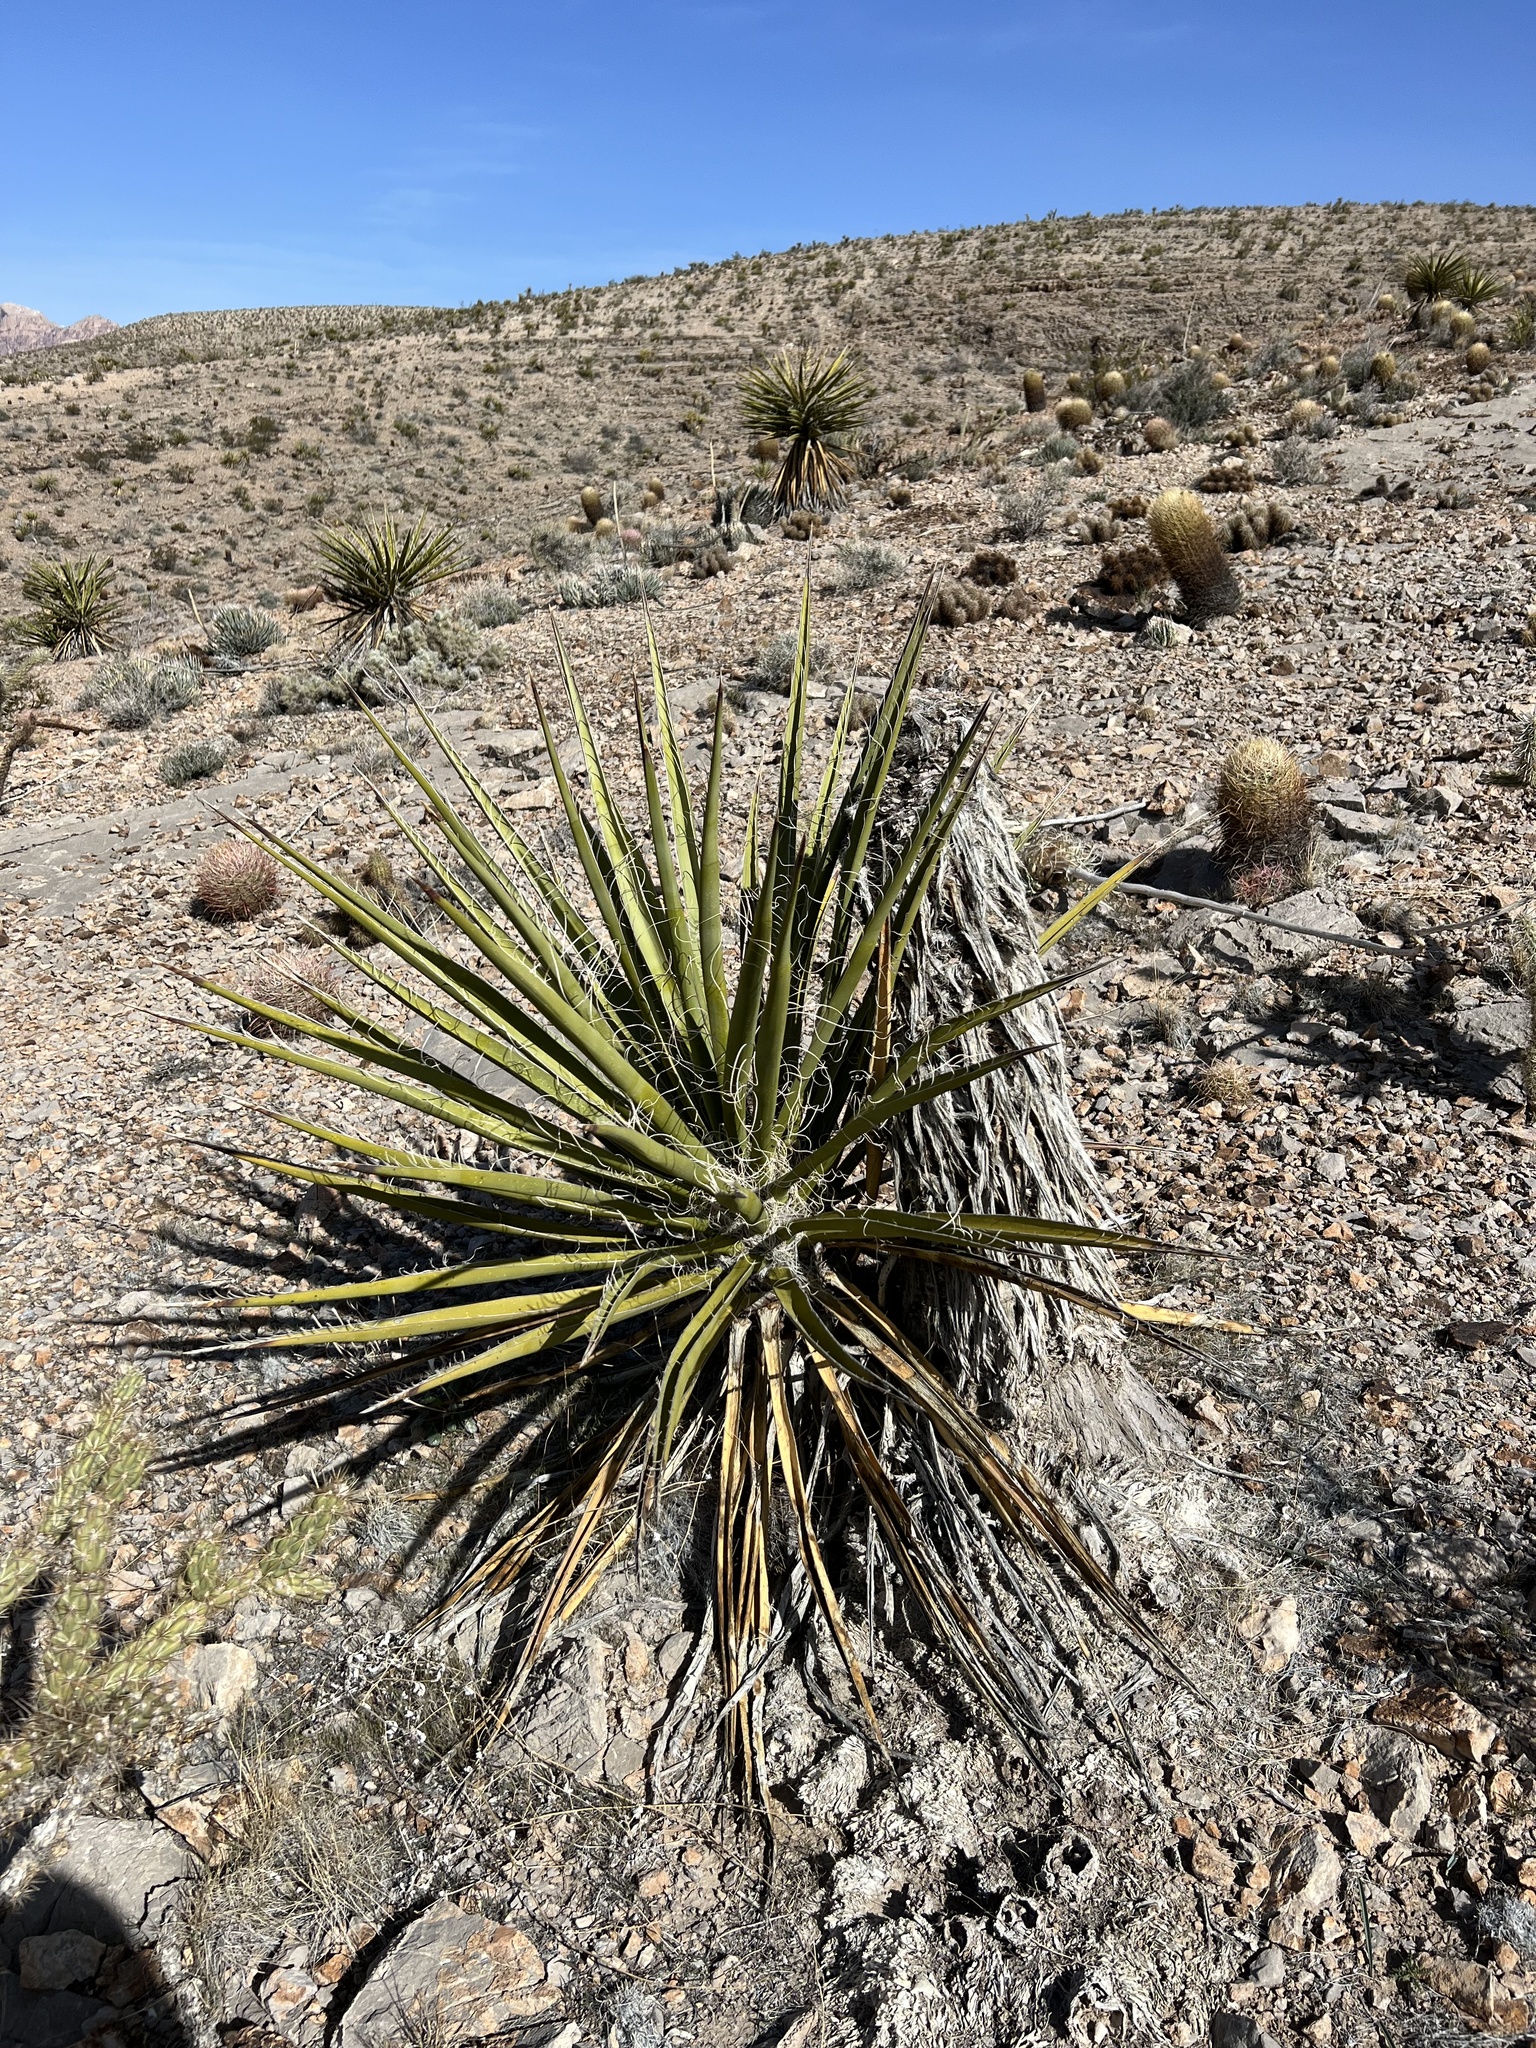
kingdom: Plantae
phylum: Tracheophyta
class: Liliopsida
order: Asparagales
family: Asparagaceae
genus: Yucca
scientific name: Yucca schidigera
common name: Mojave yucca
